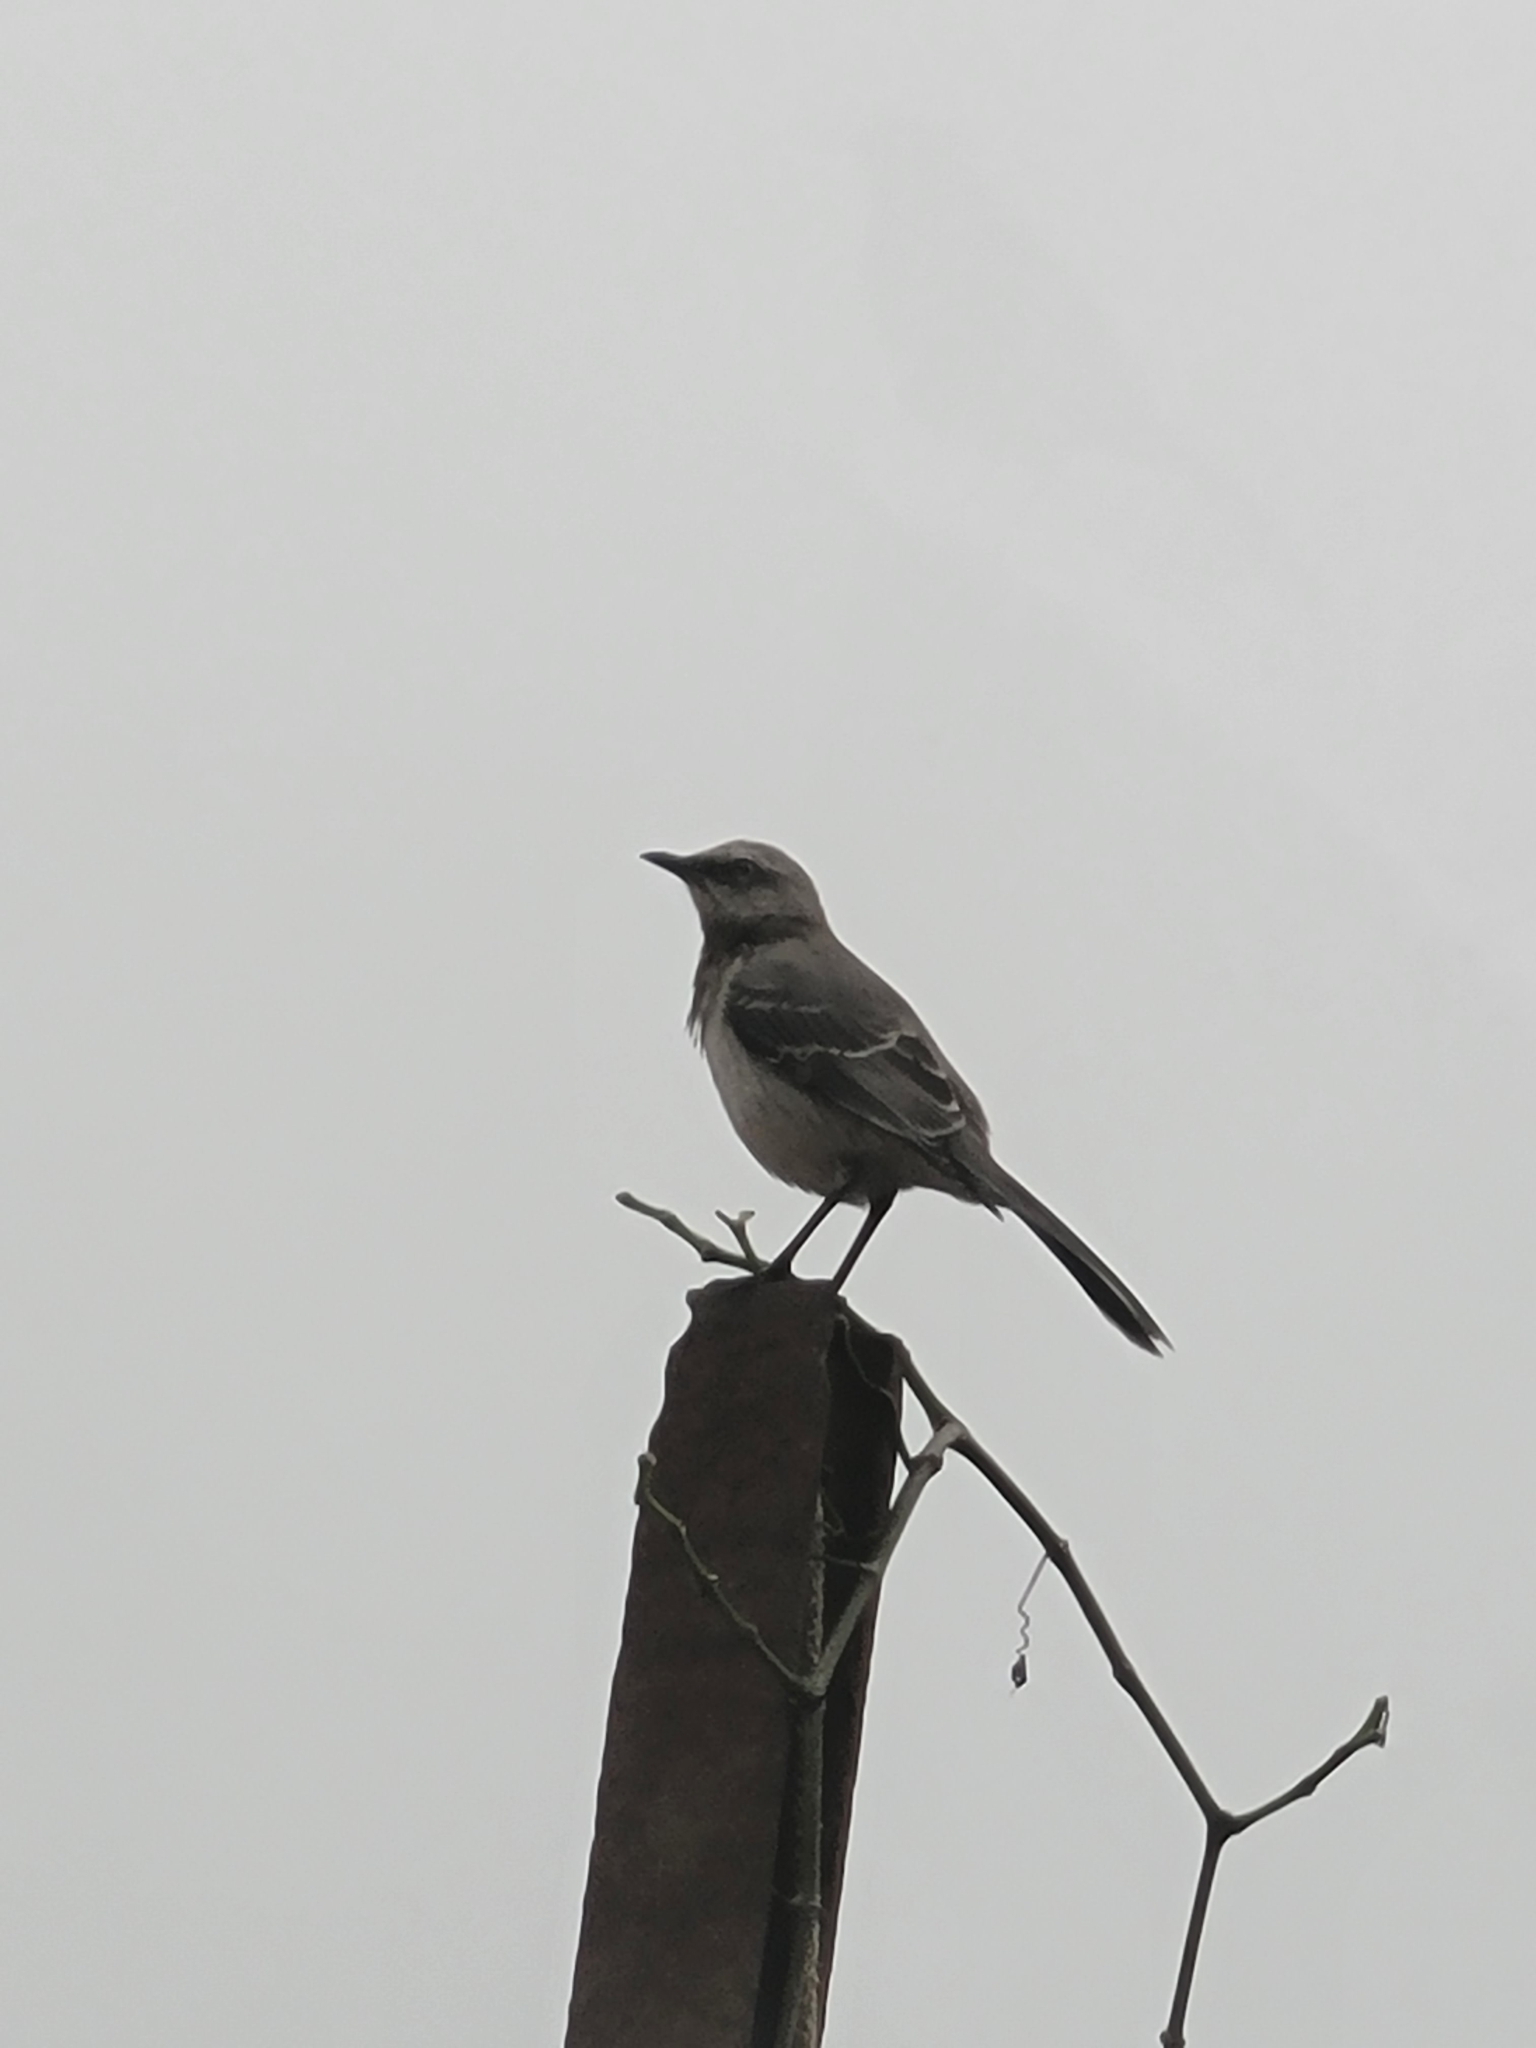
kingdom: Animalia
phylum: Chordata
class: Aves
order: Passeriformes
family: Mimidae
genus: Mimus
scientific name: Mimus gilvus
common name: Tropical mockingbird
